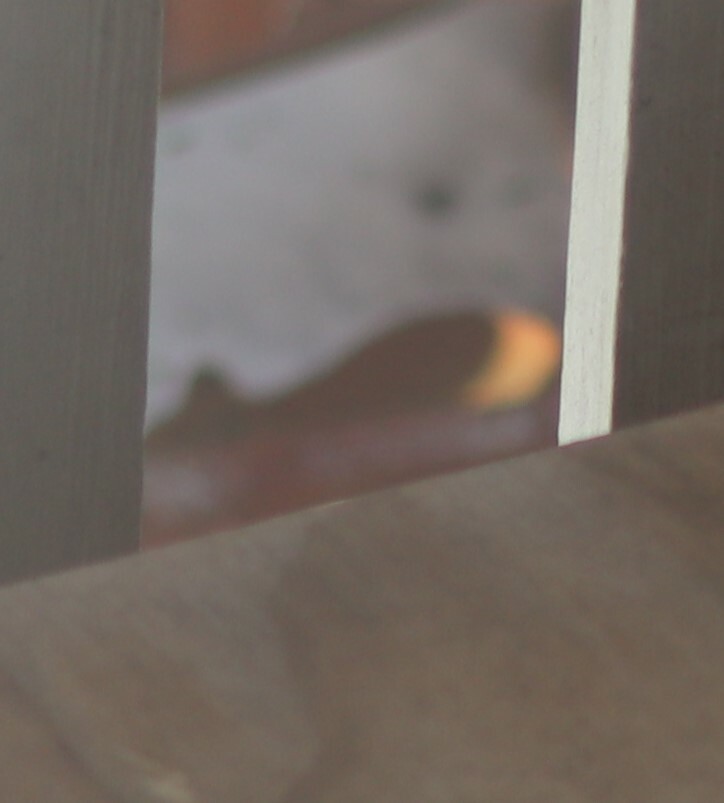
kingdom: Animalia
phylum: Chordata
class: Mammalia
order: Rodentia
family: Sciuridae
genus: Tamiasciurus
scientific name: Tamiasciurus hudsonicus
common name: Red squirrel
